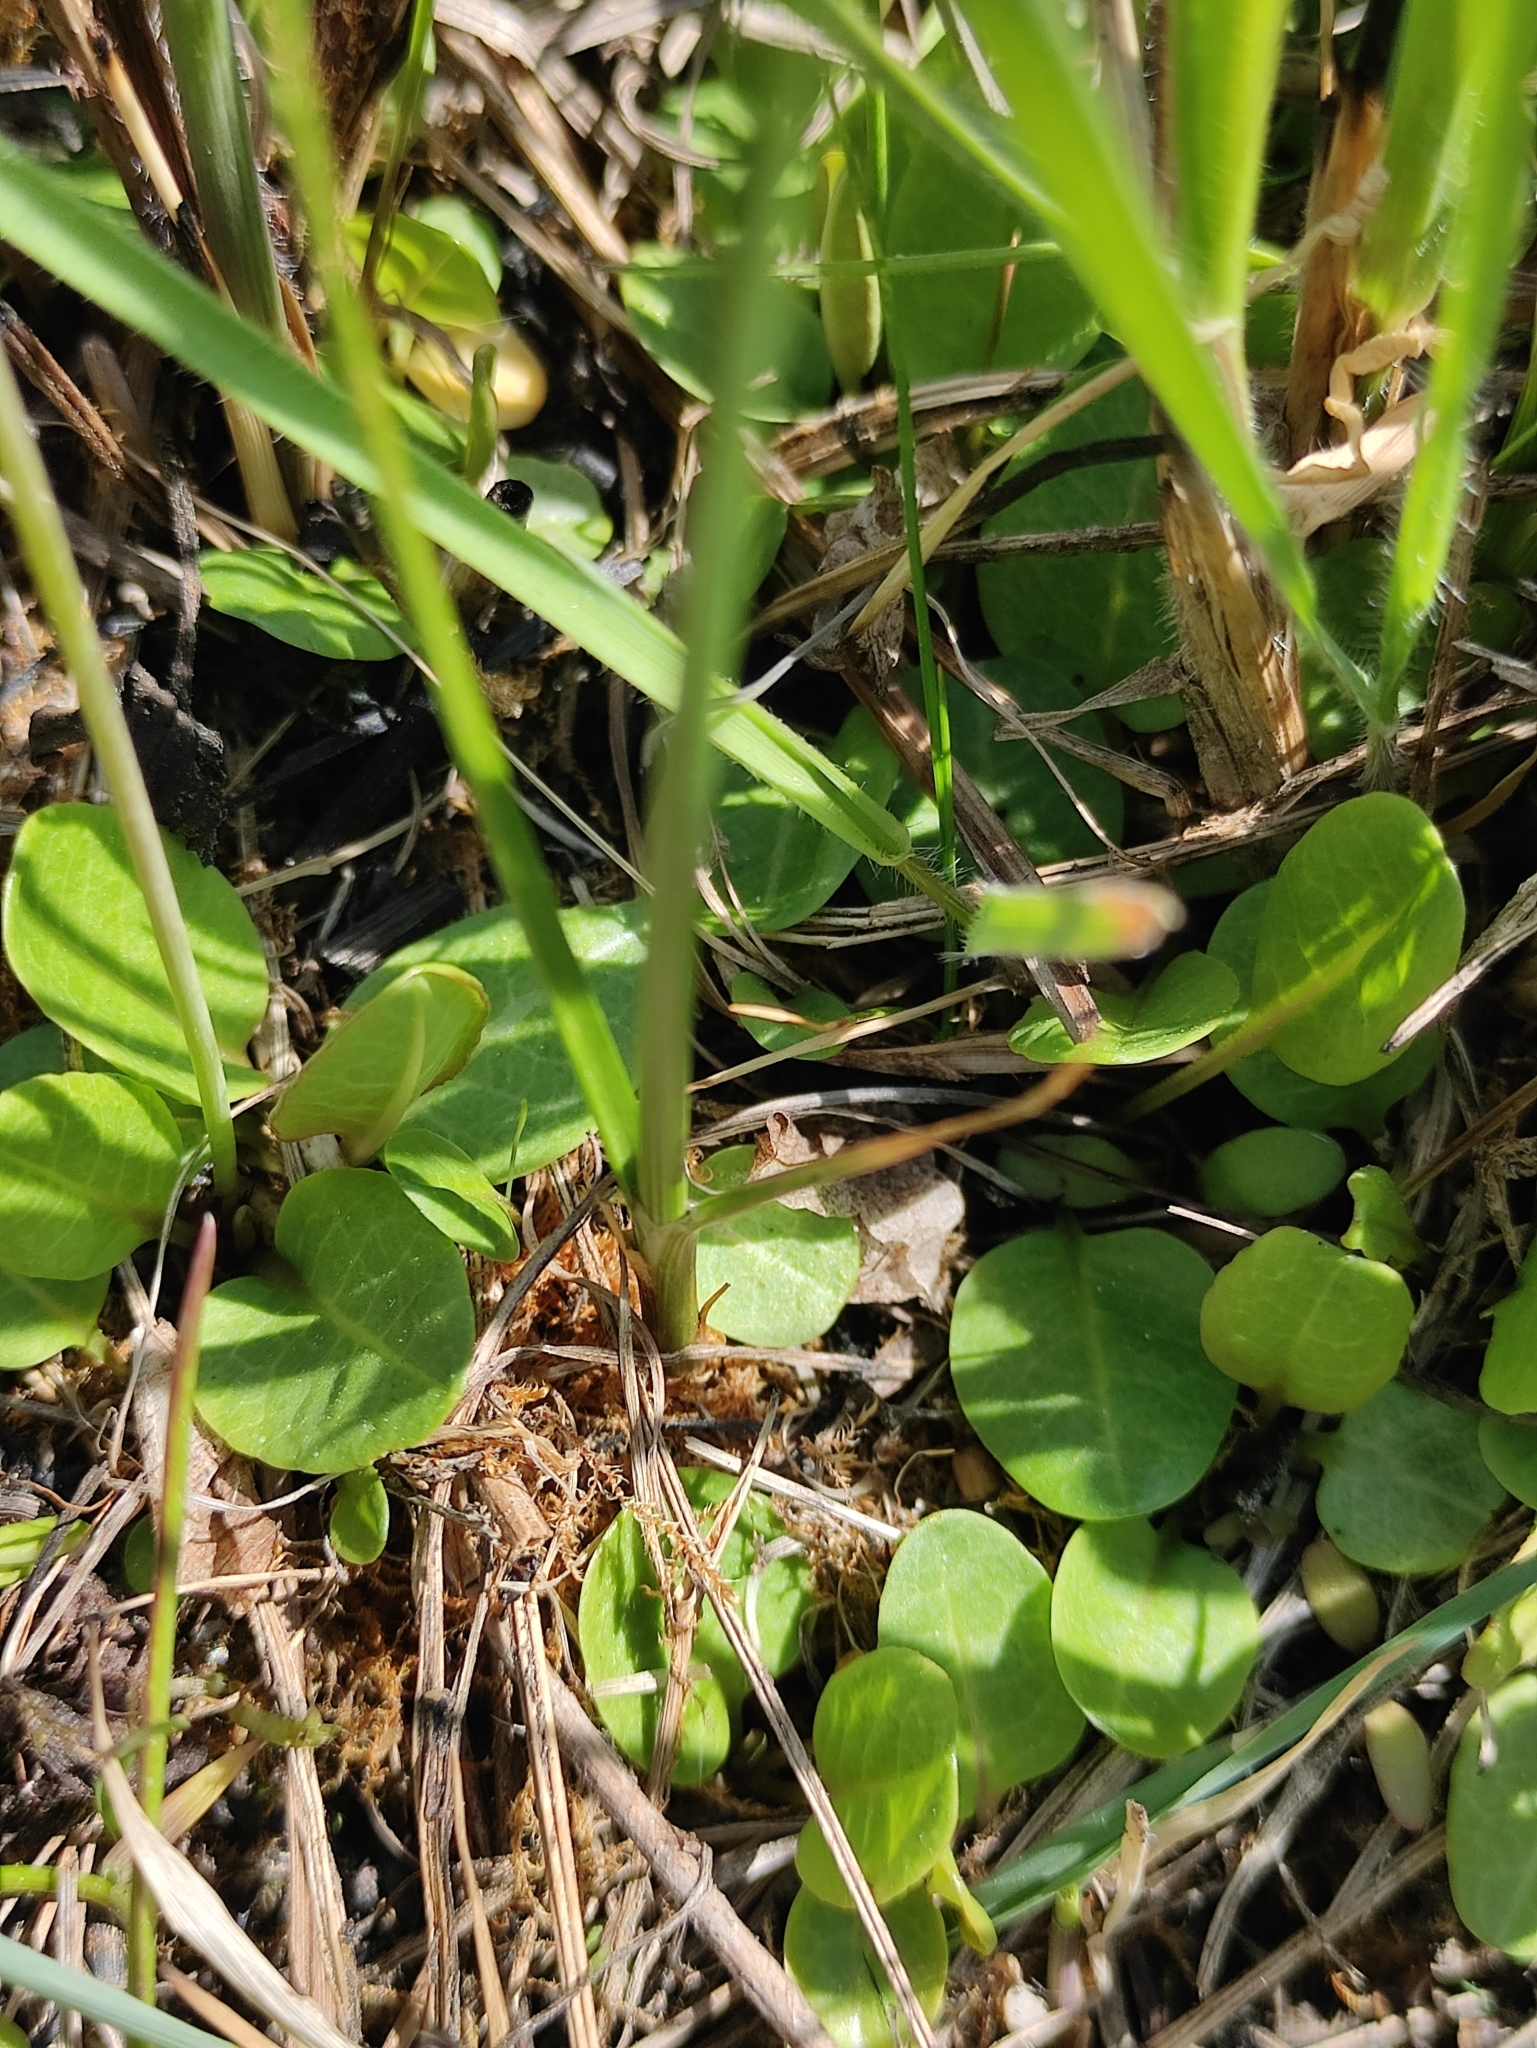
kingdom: Plantae
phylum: Tracheophyta
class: Magnoliopsida
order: Ericales
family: Primulaceae
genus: Primula
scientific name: Primula nutans
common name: Siberian primrose
